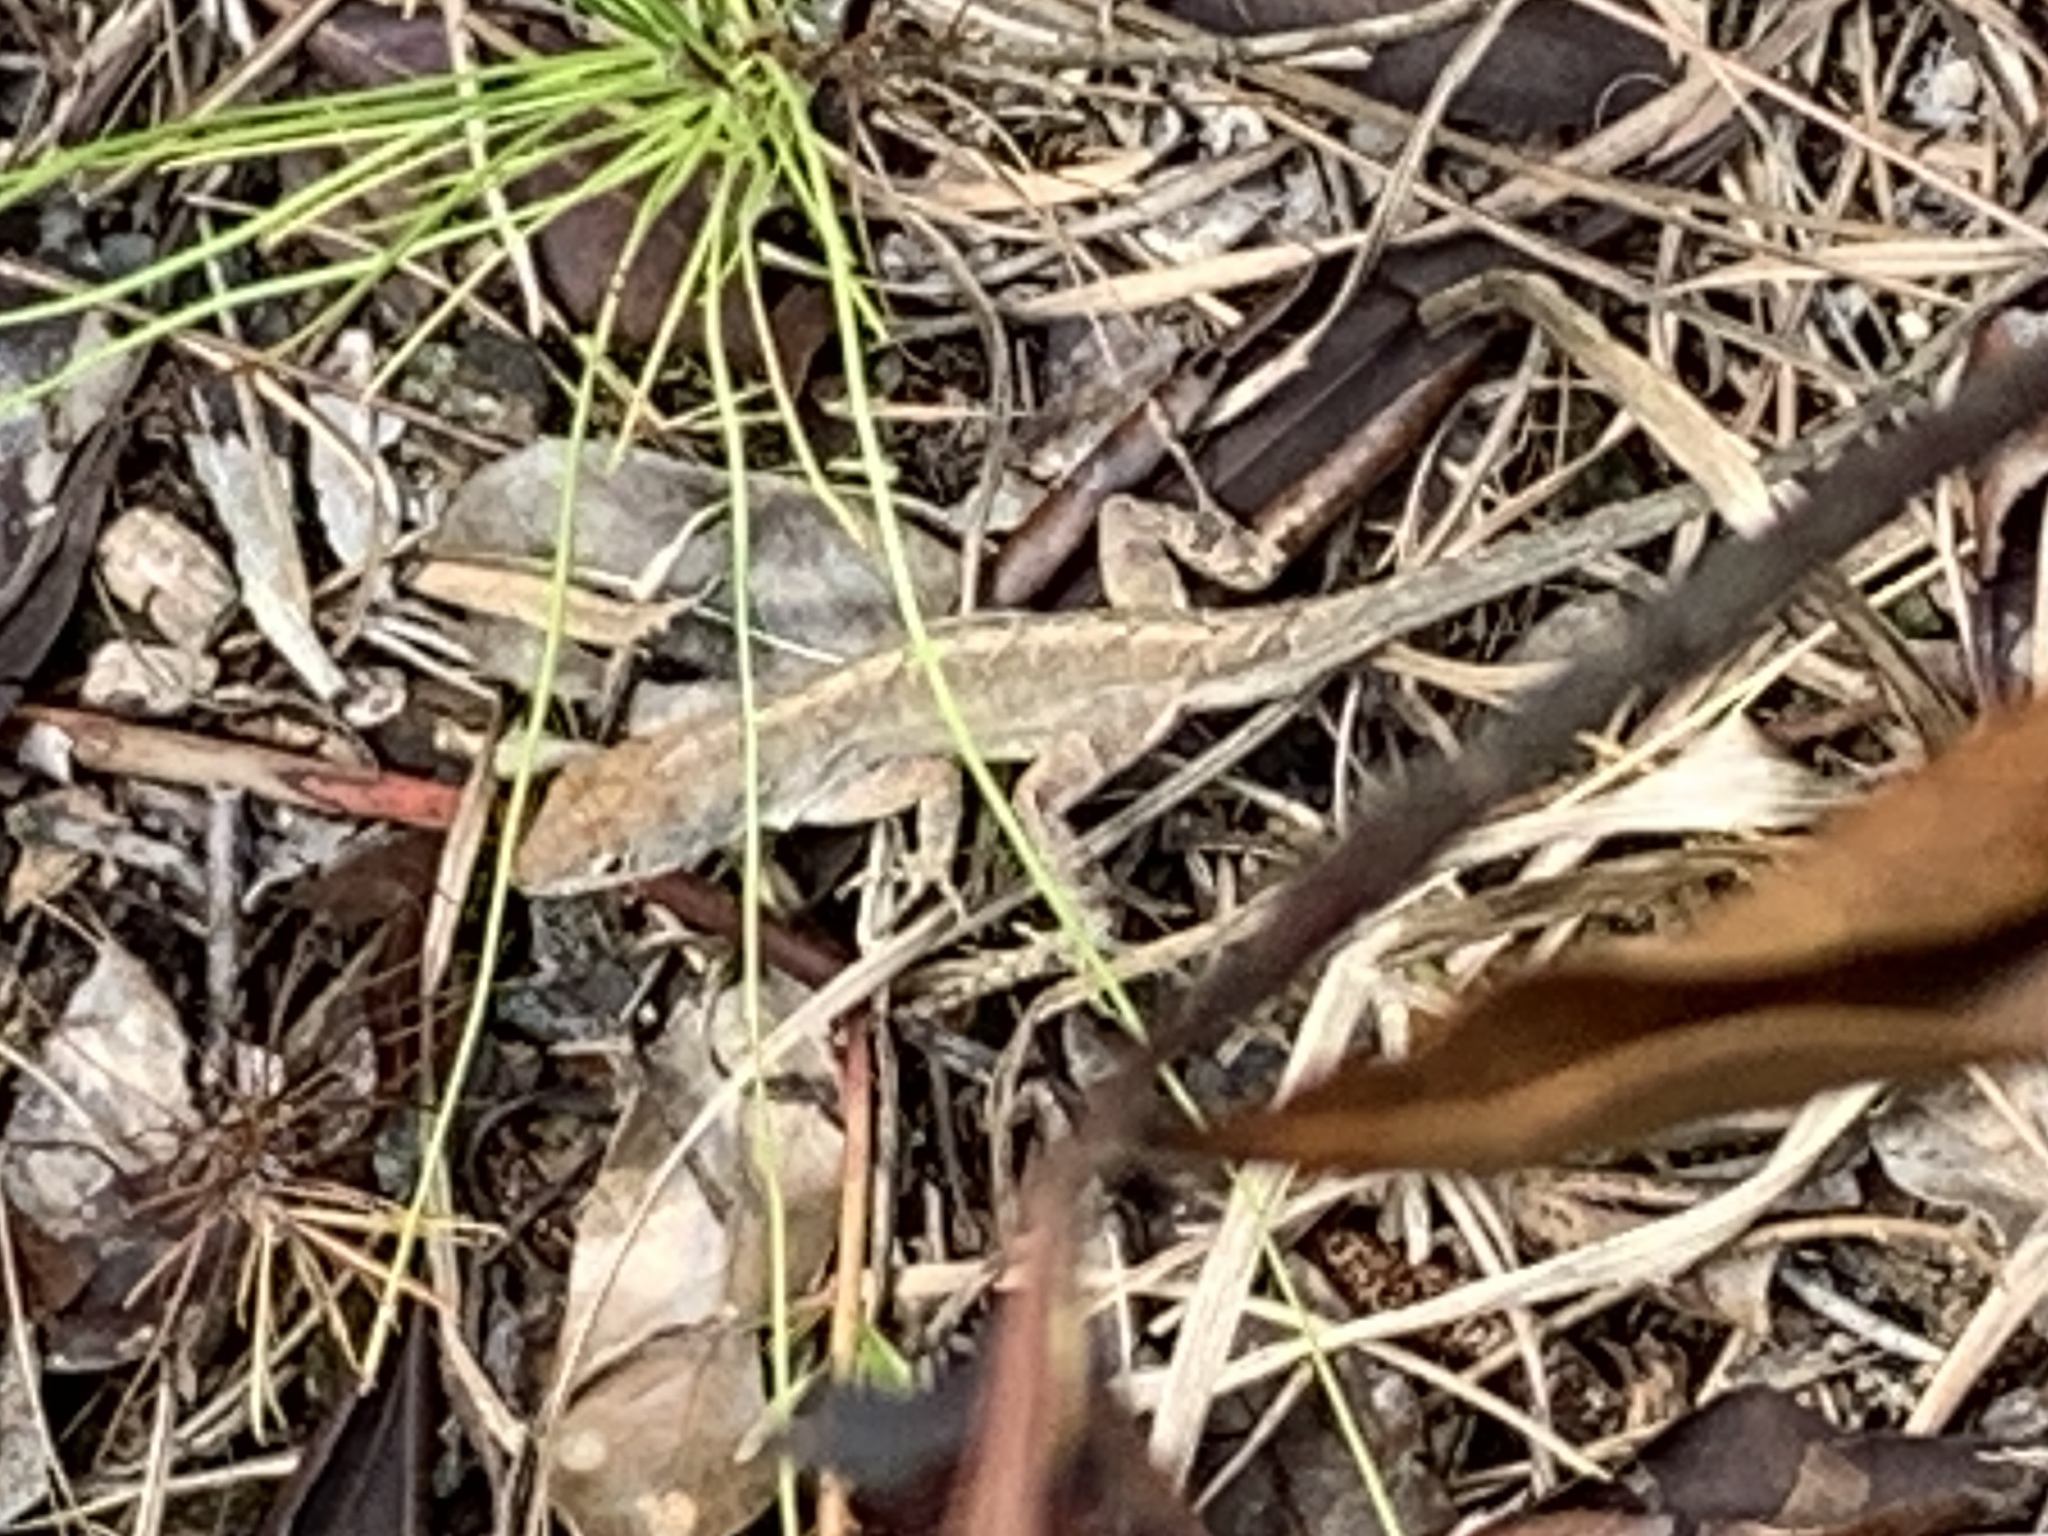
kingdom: Animalia
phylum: Chordata
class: Squamata
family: Dactyloidae
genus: Anolis
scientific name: Anolis sagrei
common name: Brown anole
